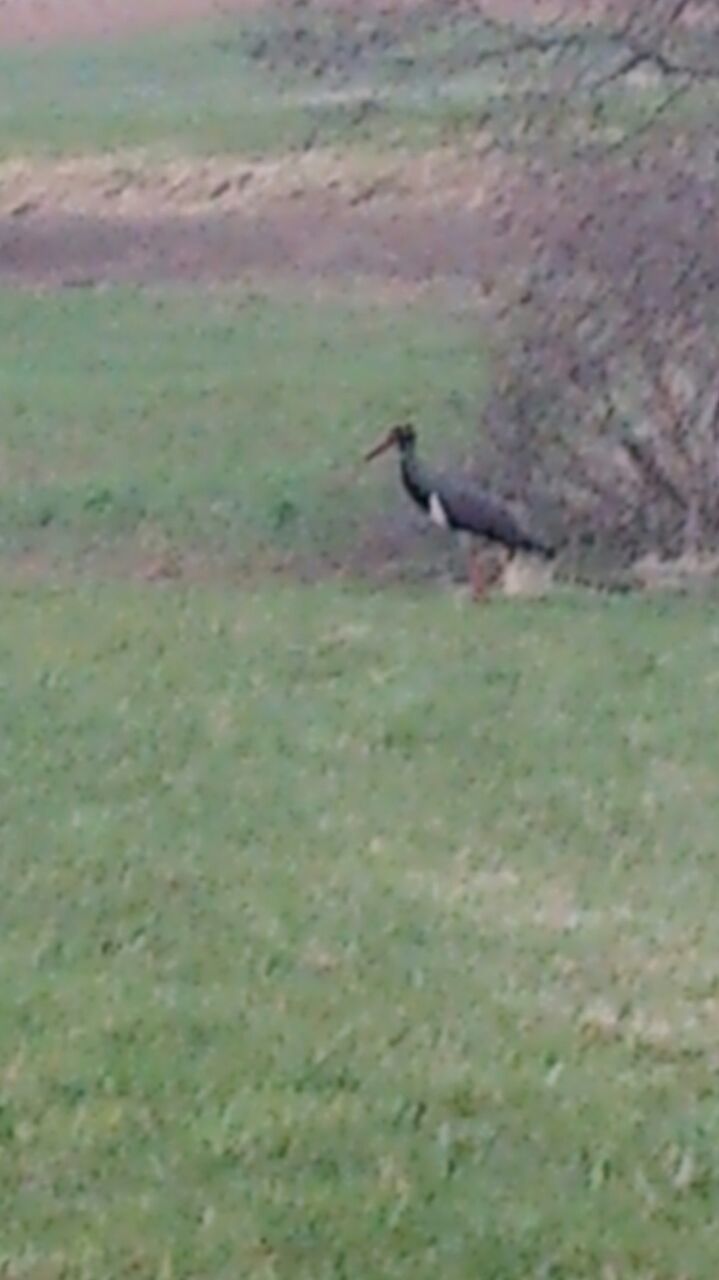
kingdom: Animalia
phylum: Chordata
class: Aves
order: Ciconiiformes
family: Ciconiidae
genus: Ciconia
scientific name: Ciconia nigra
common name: Black stork
